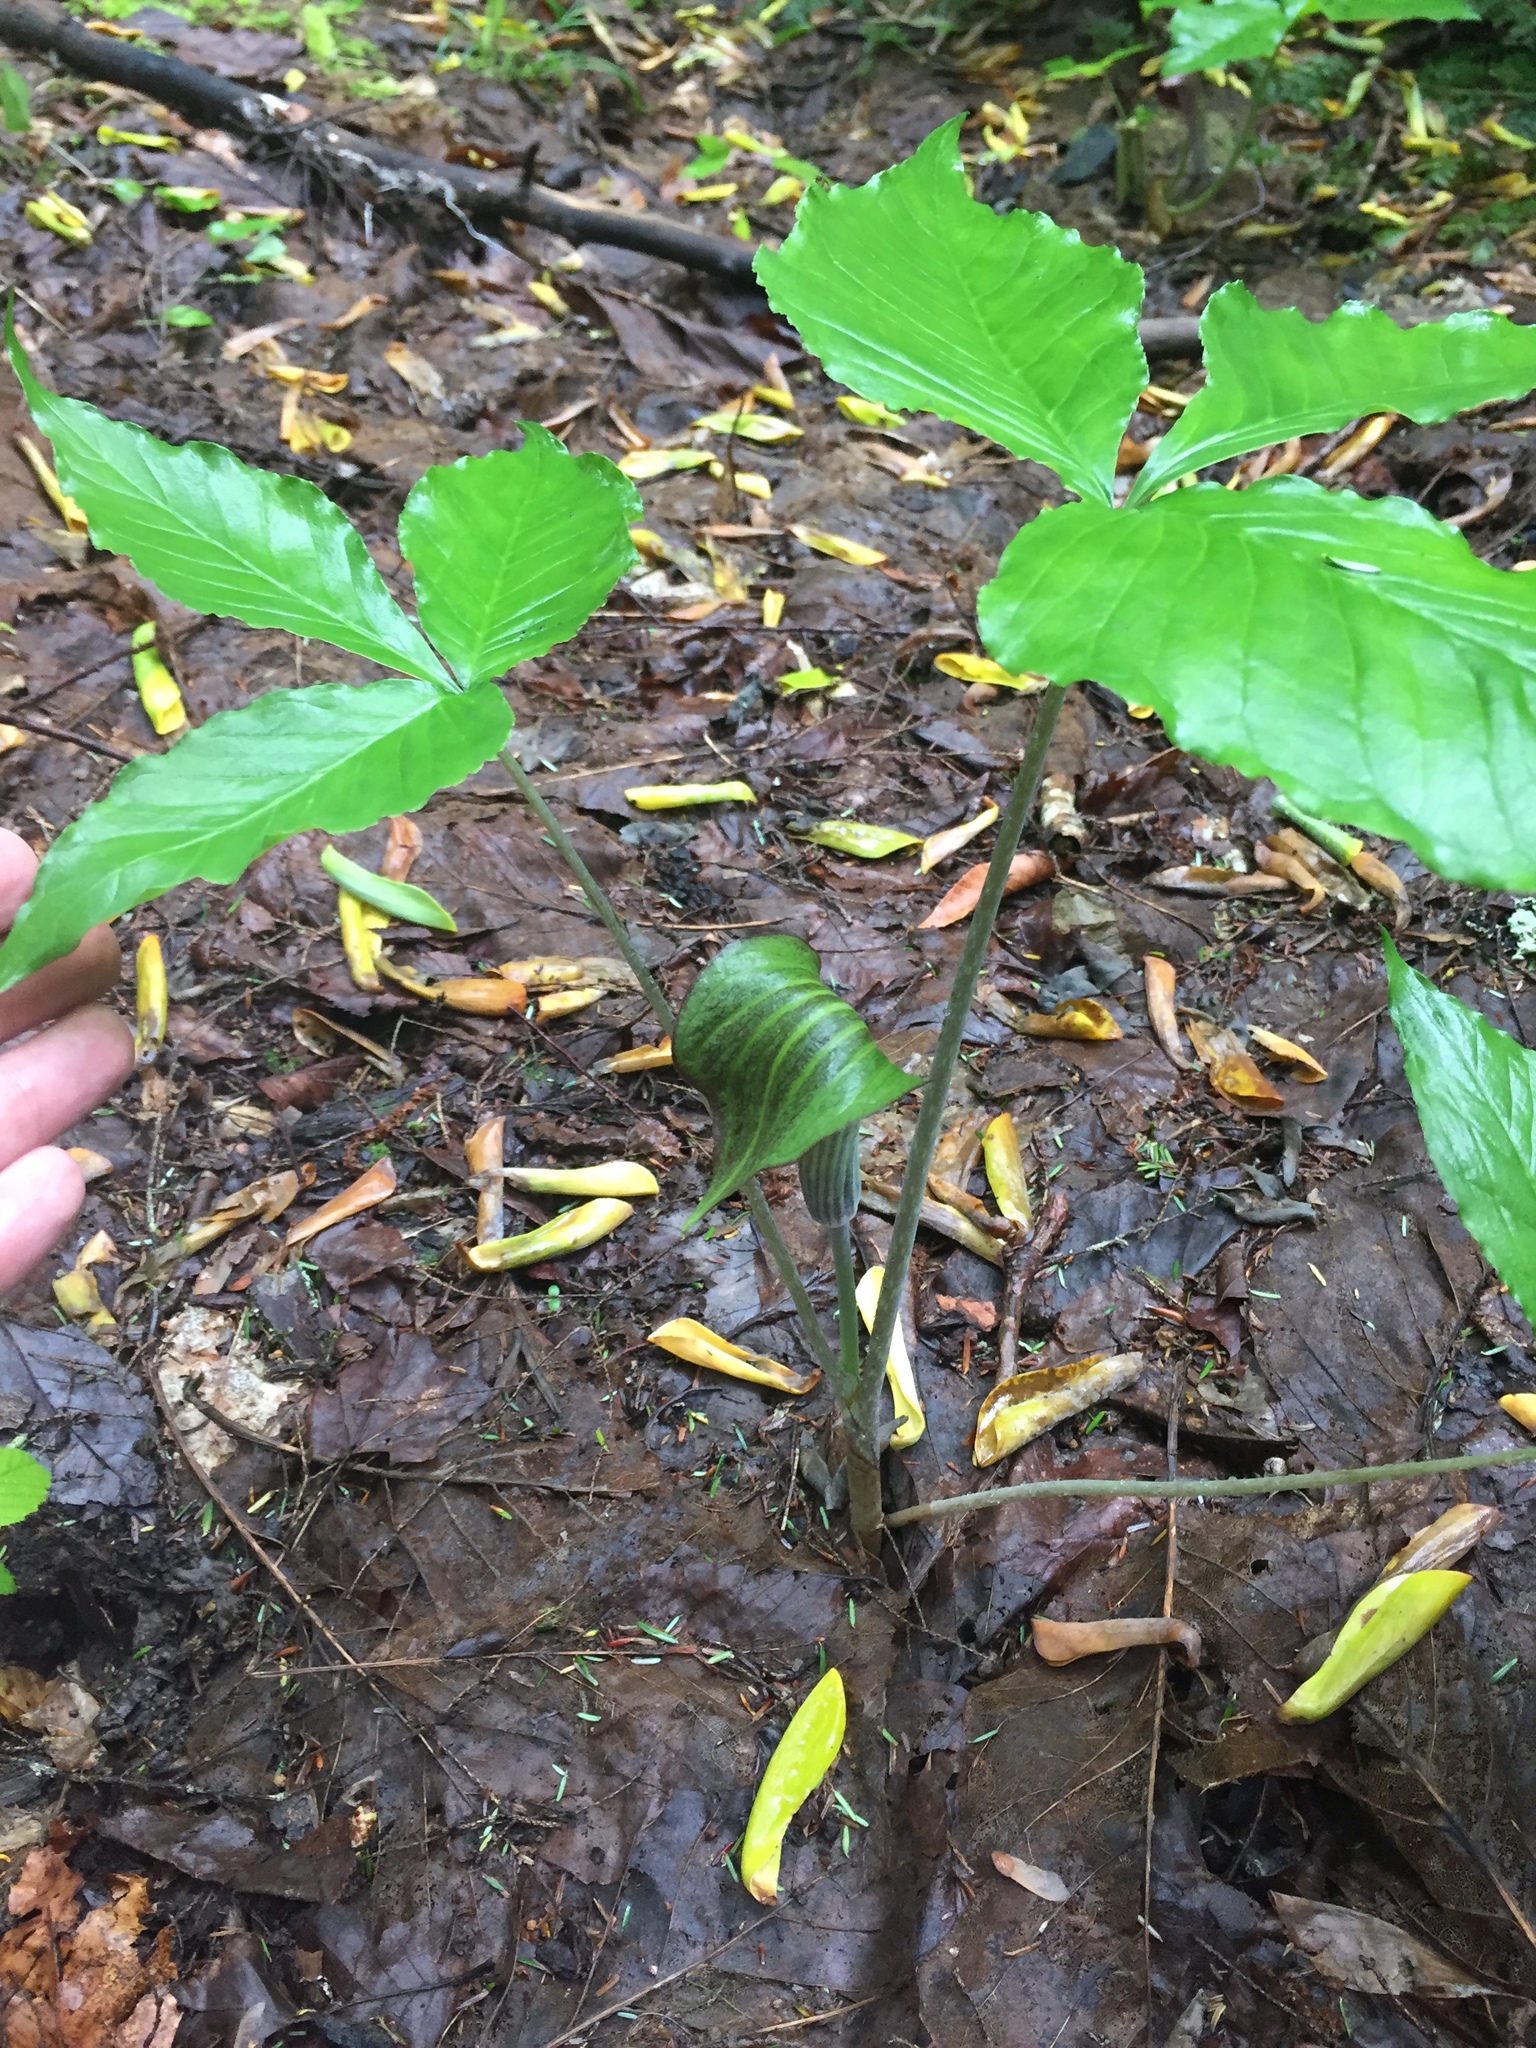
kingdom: Plantae
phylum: Tracheophyta
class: Liliopsida
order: Alismatales
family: Araceae
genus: Arisaema
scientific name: Arisaema triphyllum
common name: Jack-in-the-pulpit
